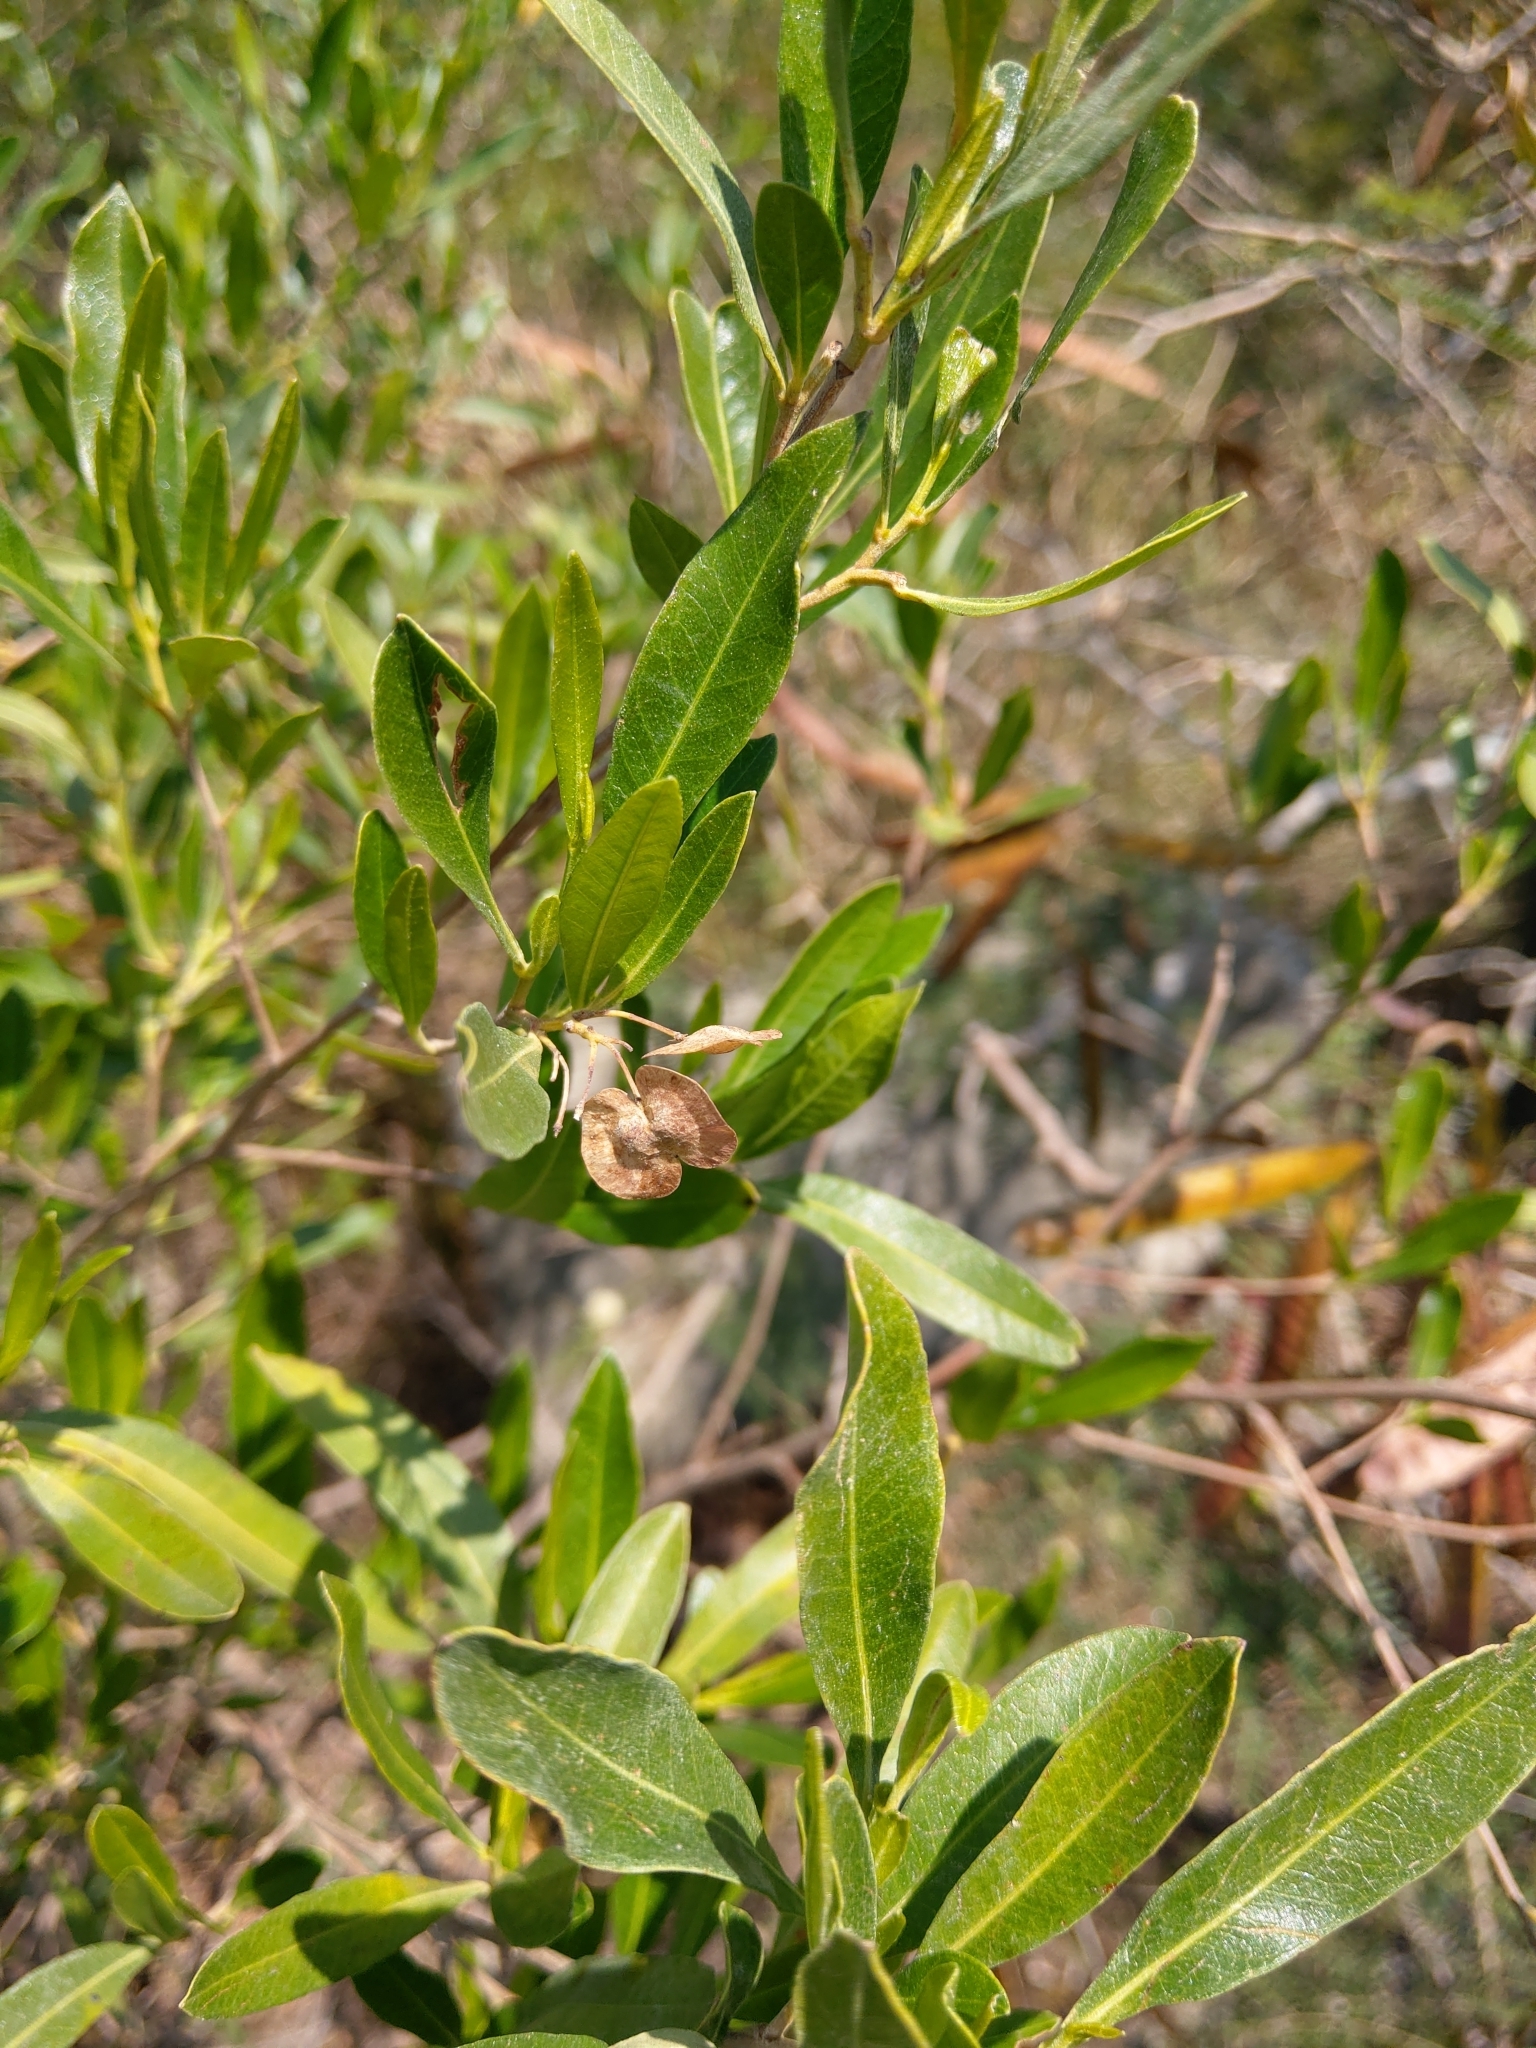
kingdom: Plantae
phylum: Tracheophyta
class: Magnoliopsida
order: Sapindales
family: Sapindaceae
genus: Dodonaea
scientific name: Dodonaea viscosa
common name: Hopbush
